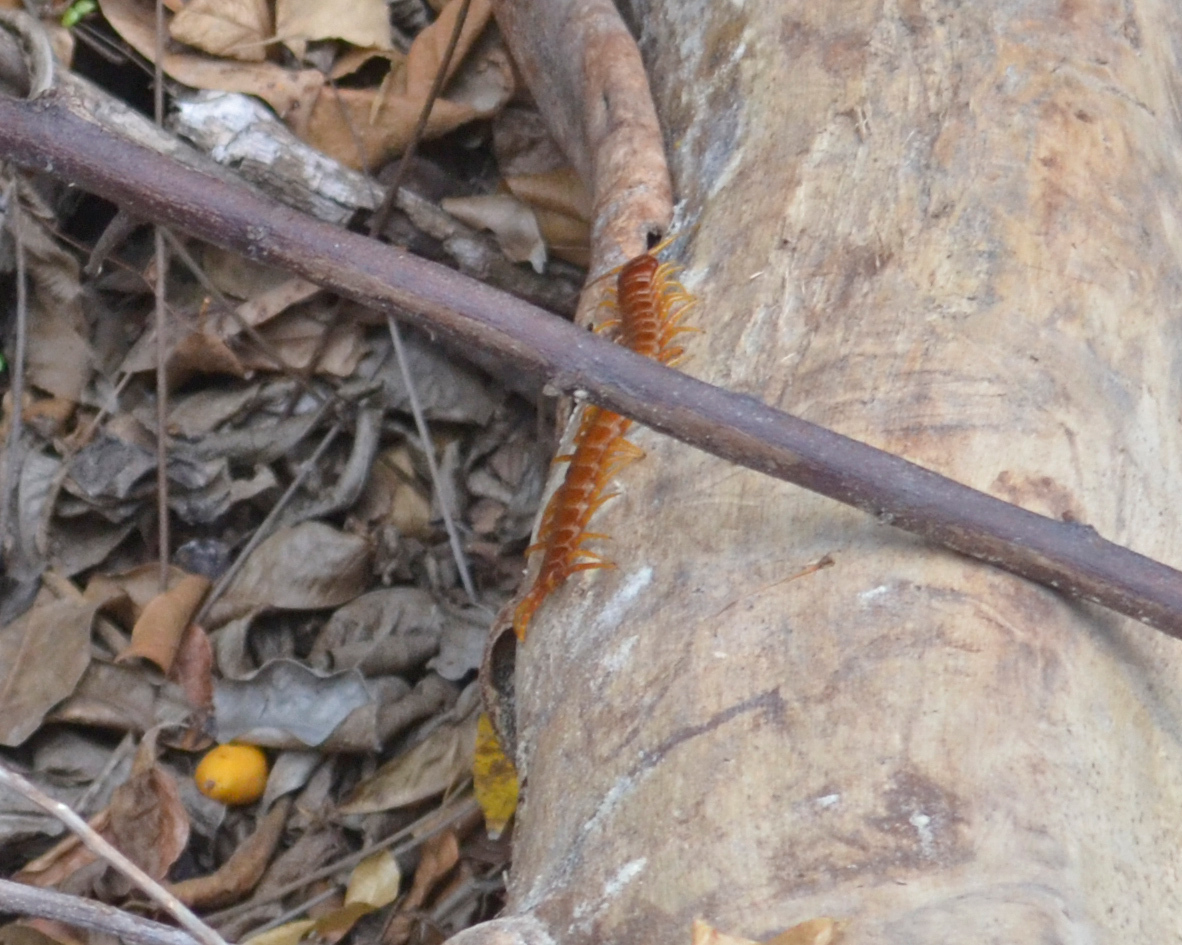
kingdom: Animalia
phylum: Arthropoda
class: Chilopoda
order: Scolopendromorpha
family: Scolopendridae
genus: Scolopendra
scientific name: Scolopendra alternans
